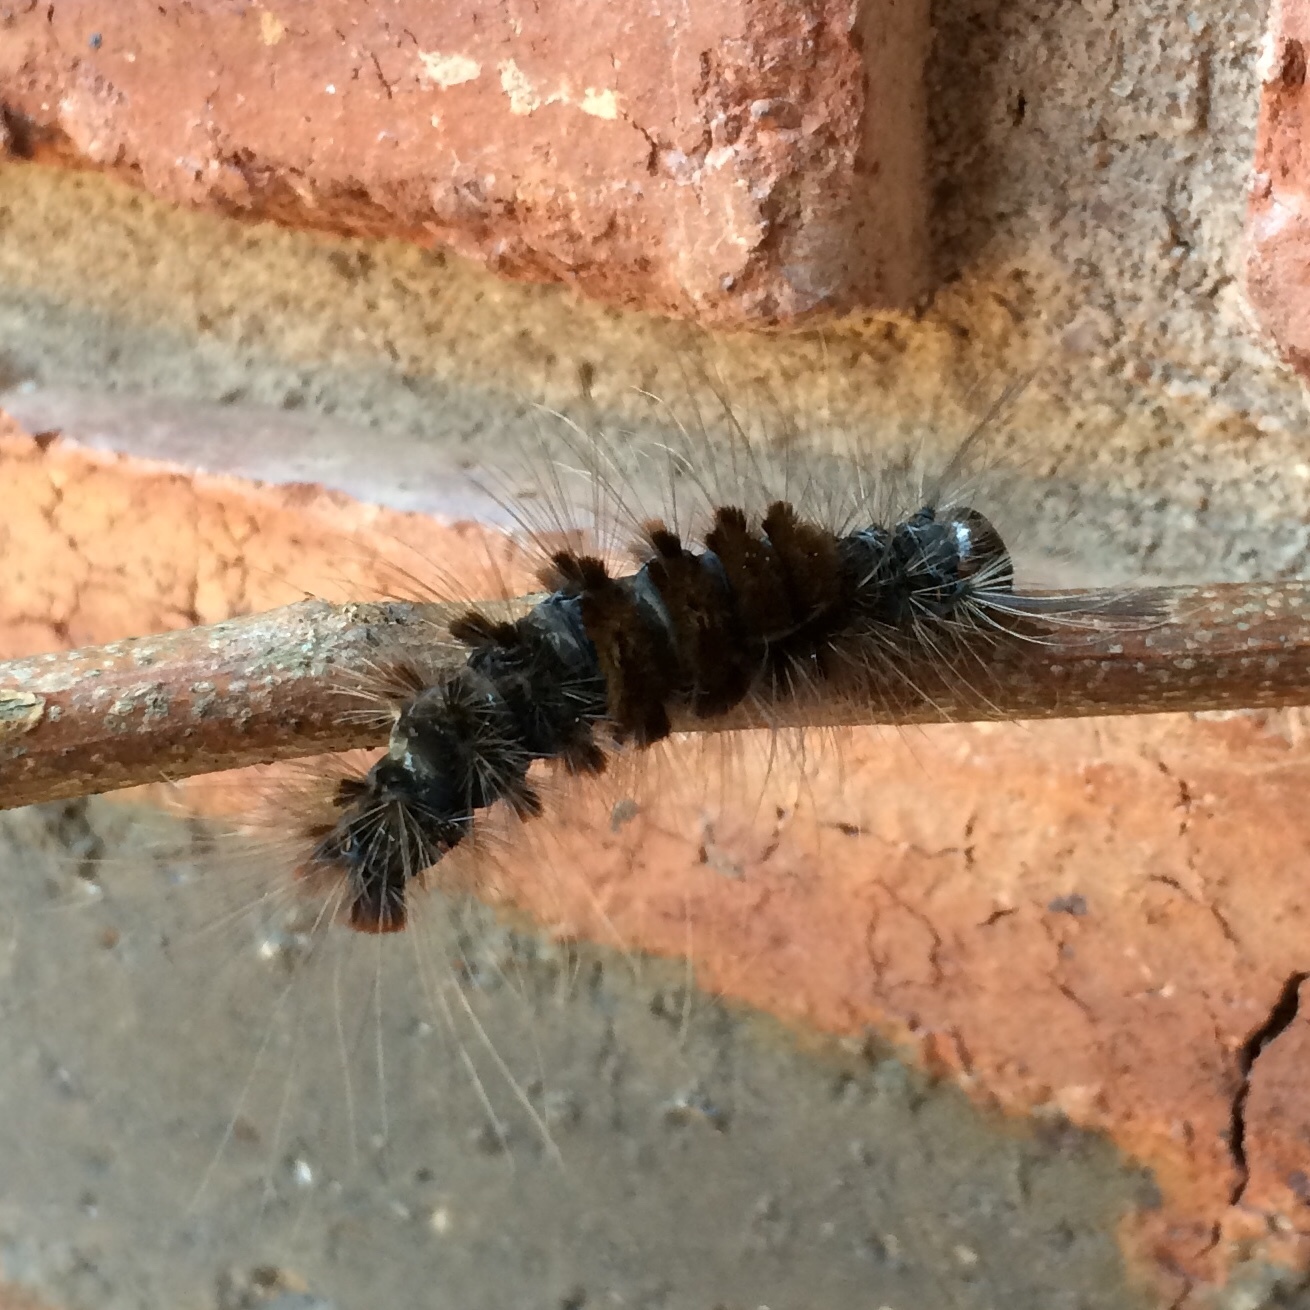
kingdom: Animalia
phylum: Arthropoda
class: Insecta
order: Lepidoptera
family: Erebidae
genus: Dasychira
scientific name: Dasychira extorta
